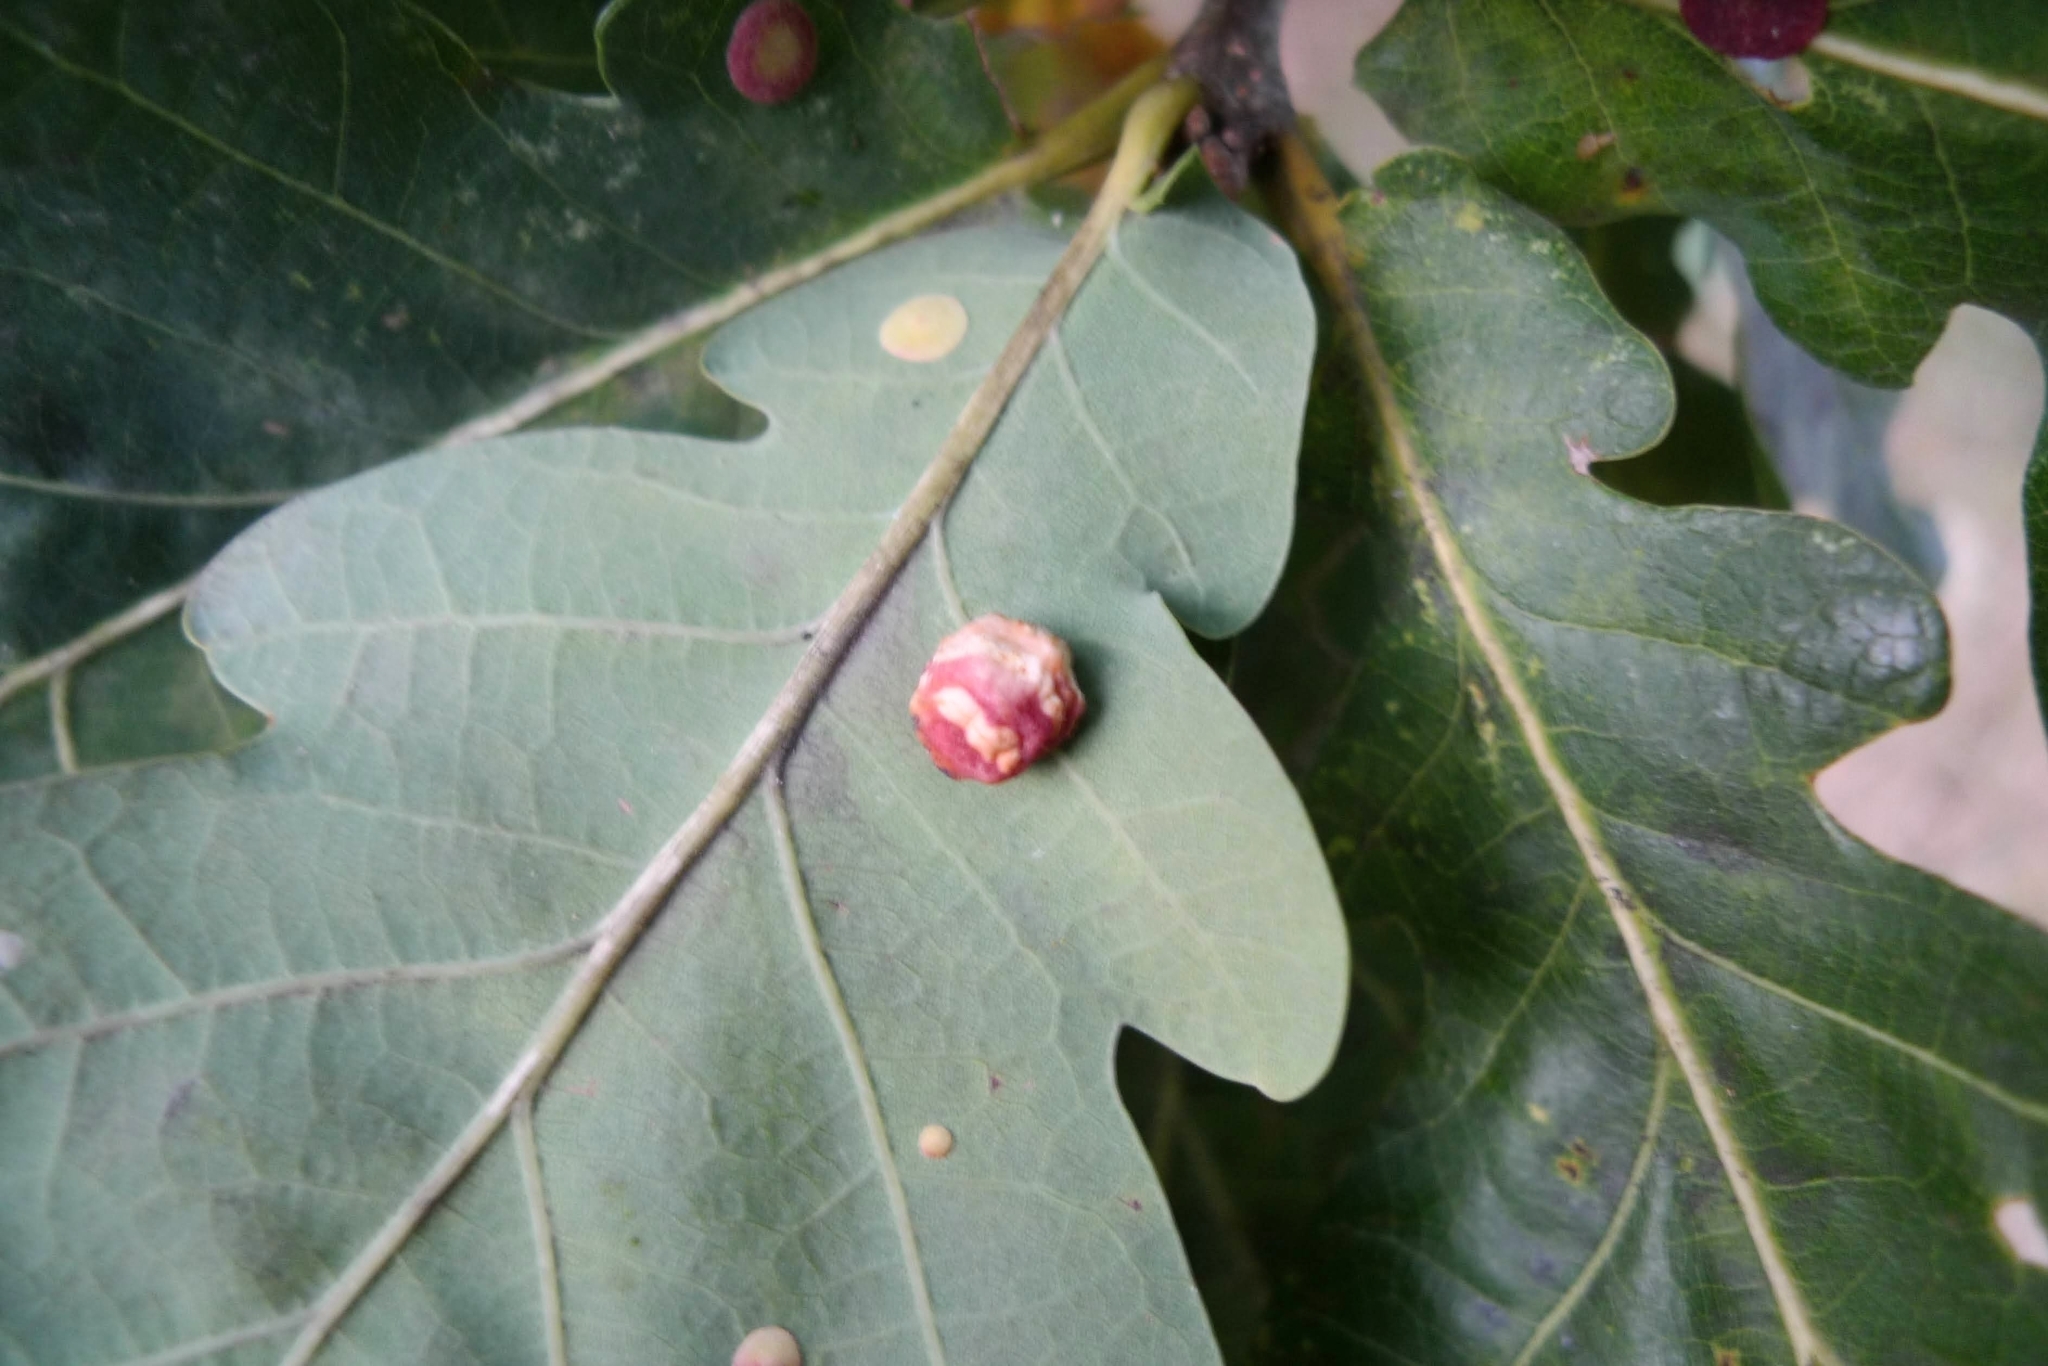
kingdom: Animalia
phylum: Arthropoda
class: Insecta
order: Hymenoptera
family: Cynipidae
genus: Cynips
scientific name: Cynips longiventris
